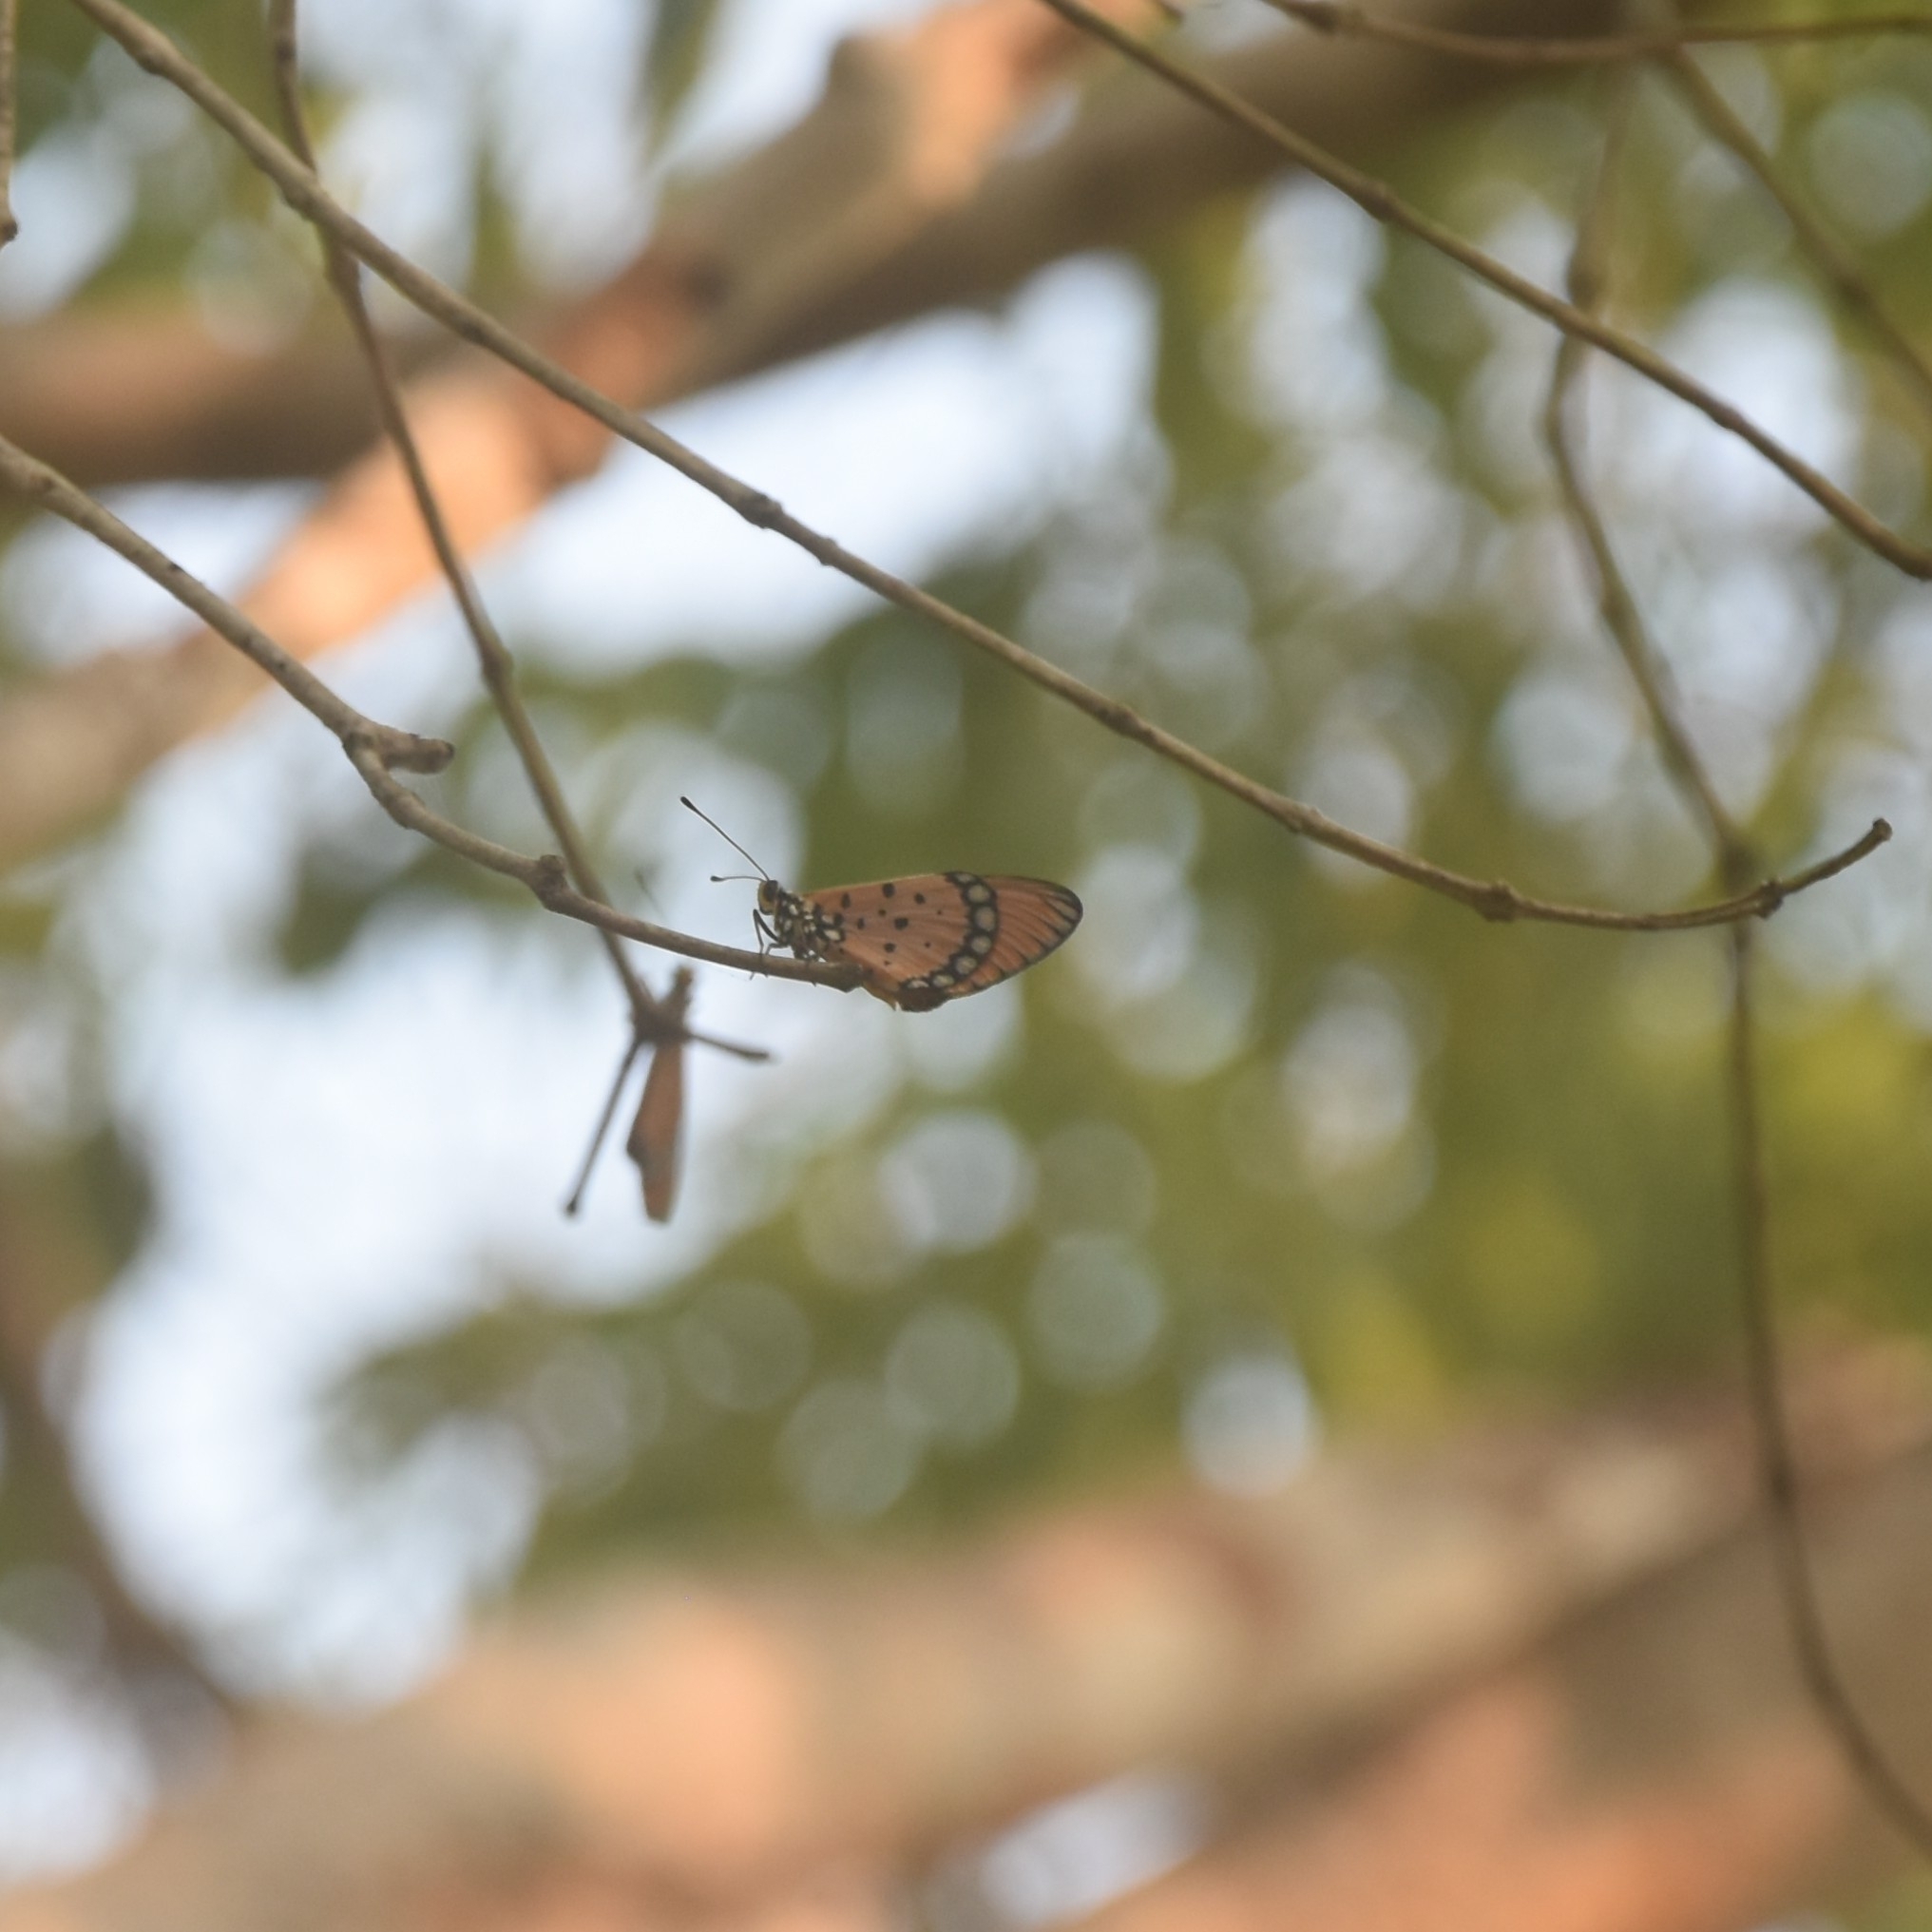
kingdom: Animalia
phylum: Arthropoda
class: Insecta
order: Lepidoptera
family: Nymphalidae
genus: Acraea
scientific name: Acraea terpsicore
